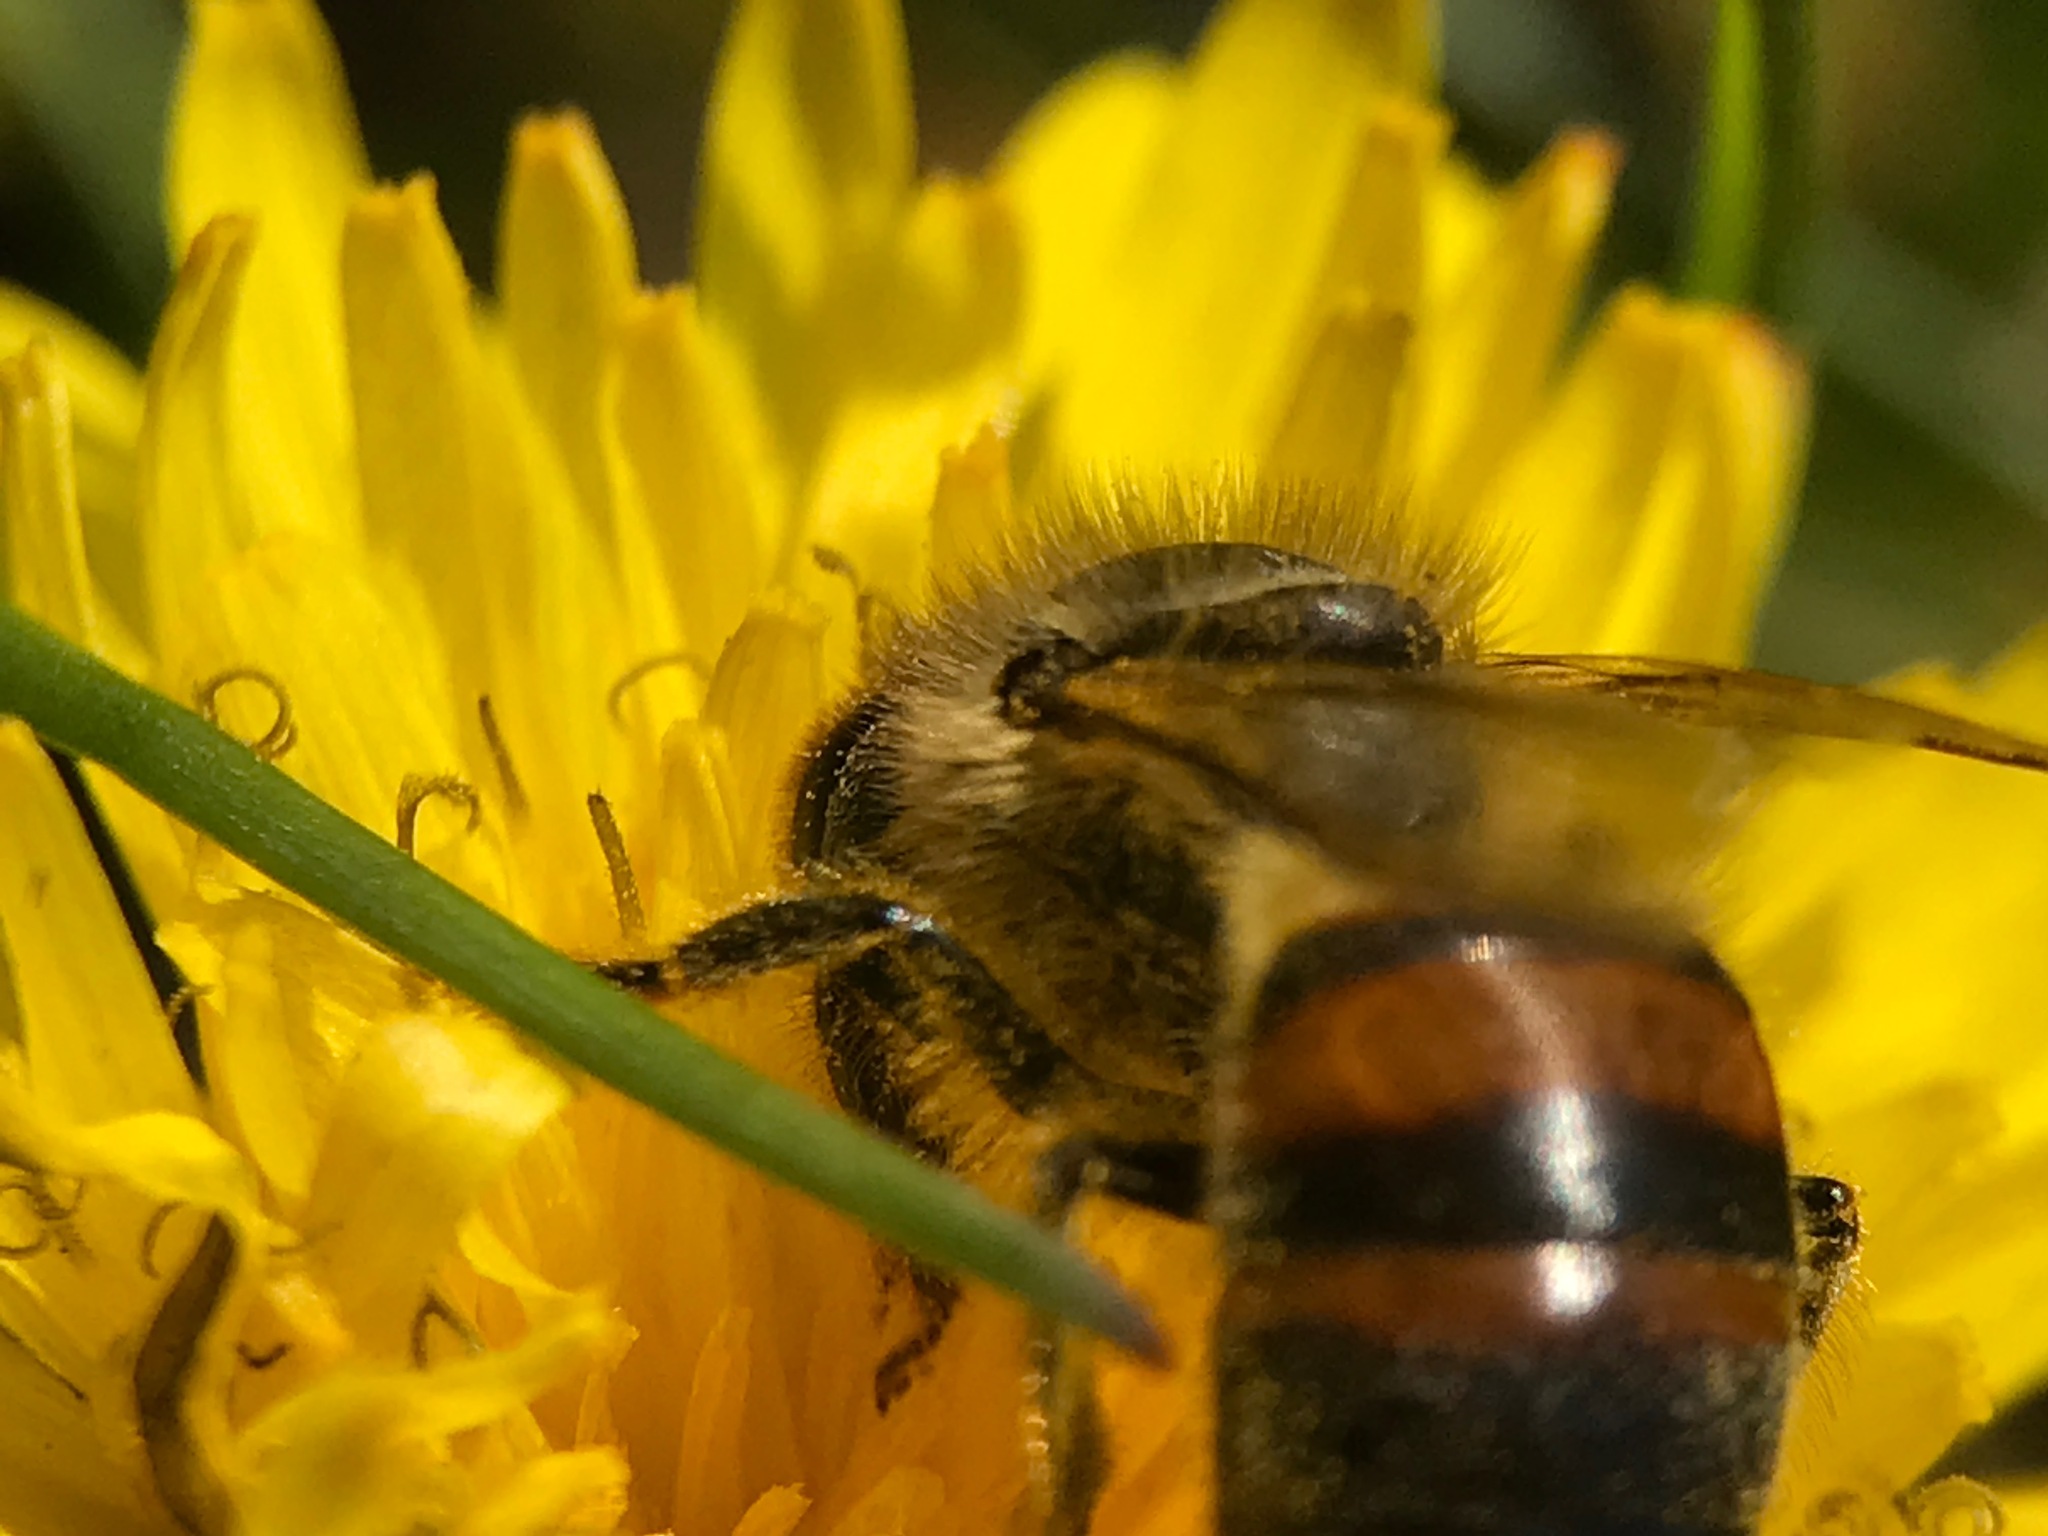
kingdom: Animalia
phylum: Arthropoda
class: Insecta
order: Hymenoptera
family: Apidae
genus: Apis
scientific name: Apis mellifera
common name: Honey bee
